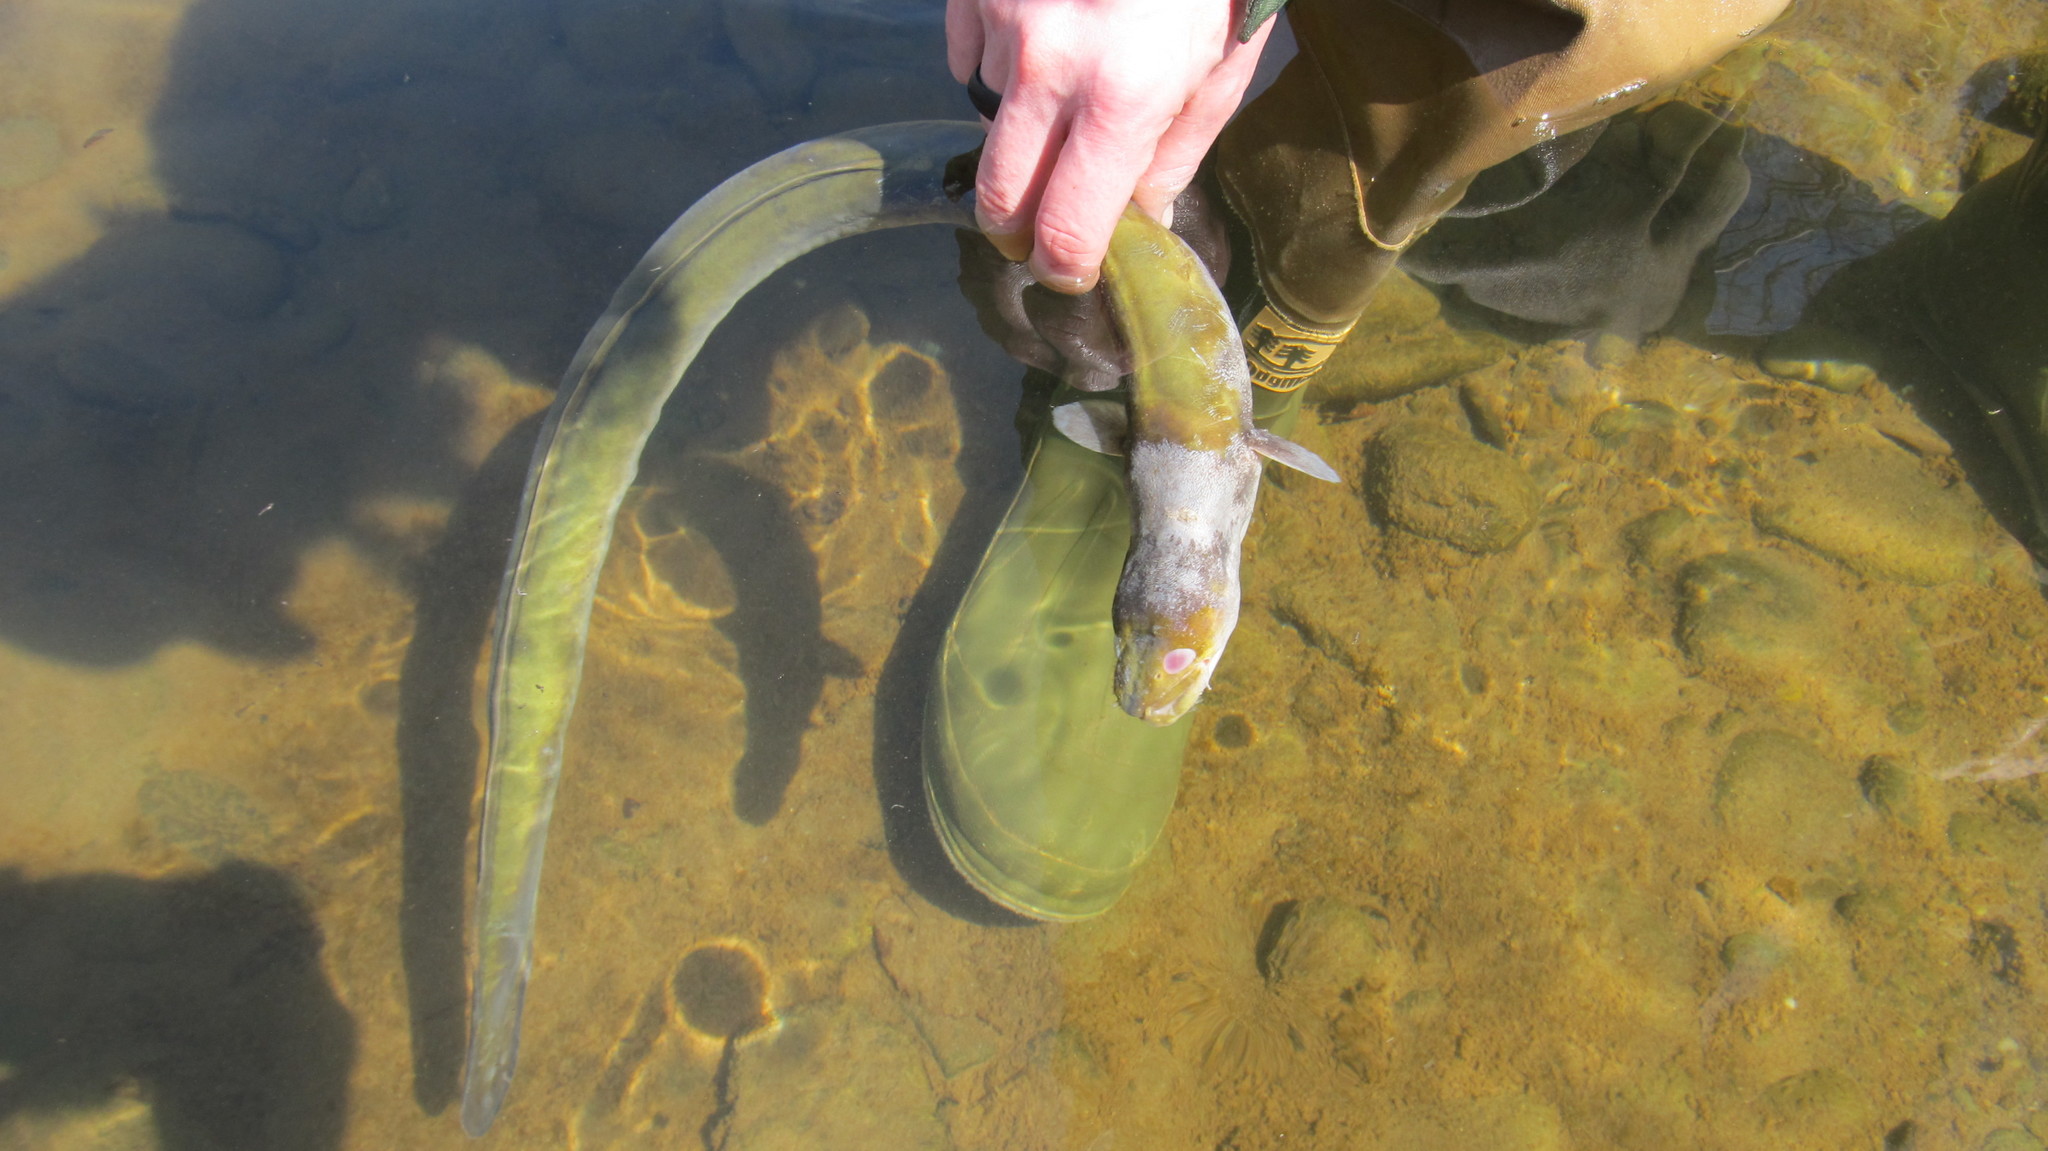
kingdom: Animalia
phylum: Chordata
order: Anguilliformes
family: Anguillidae
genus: Anguilla
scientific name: Anguilla rostrata
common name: American eel
